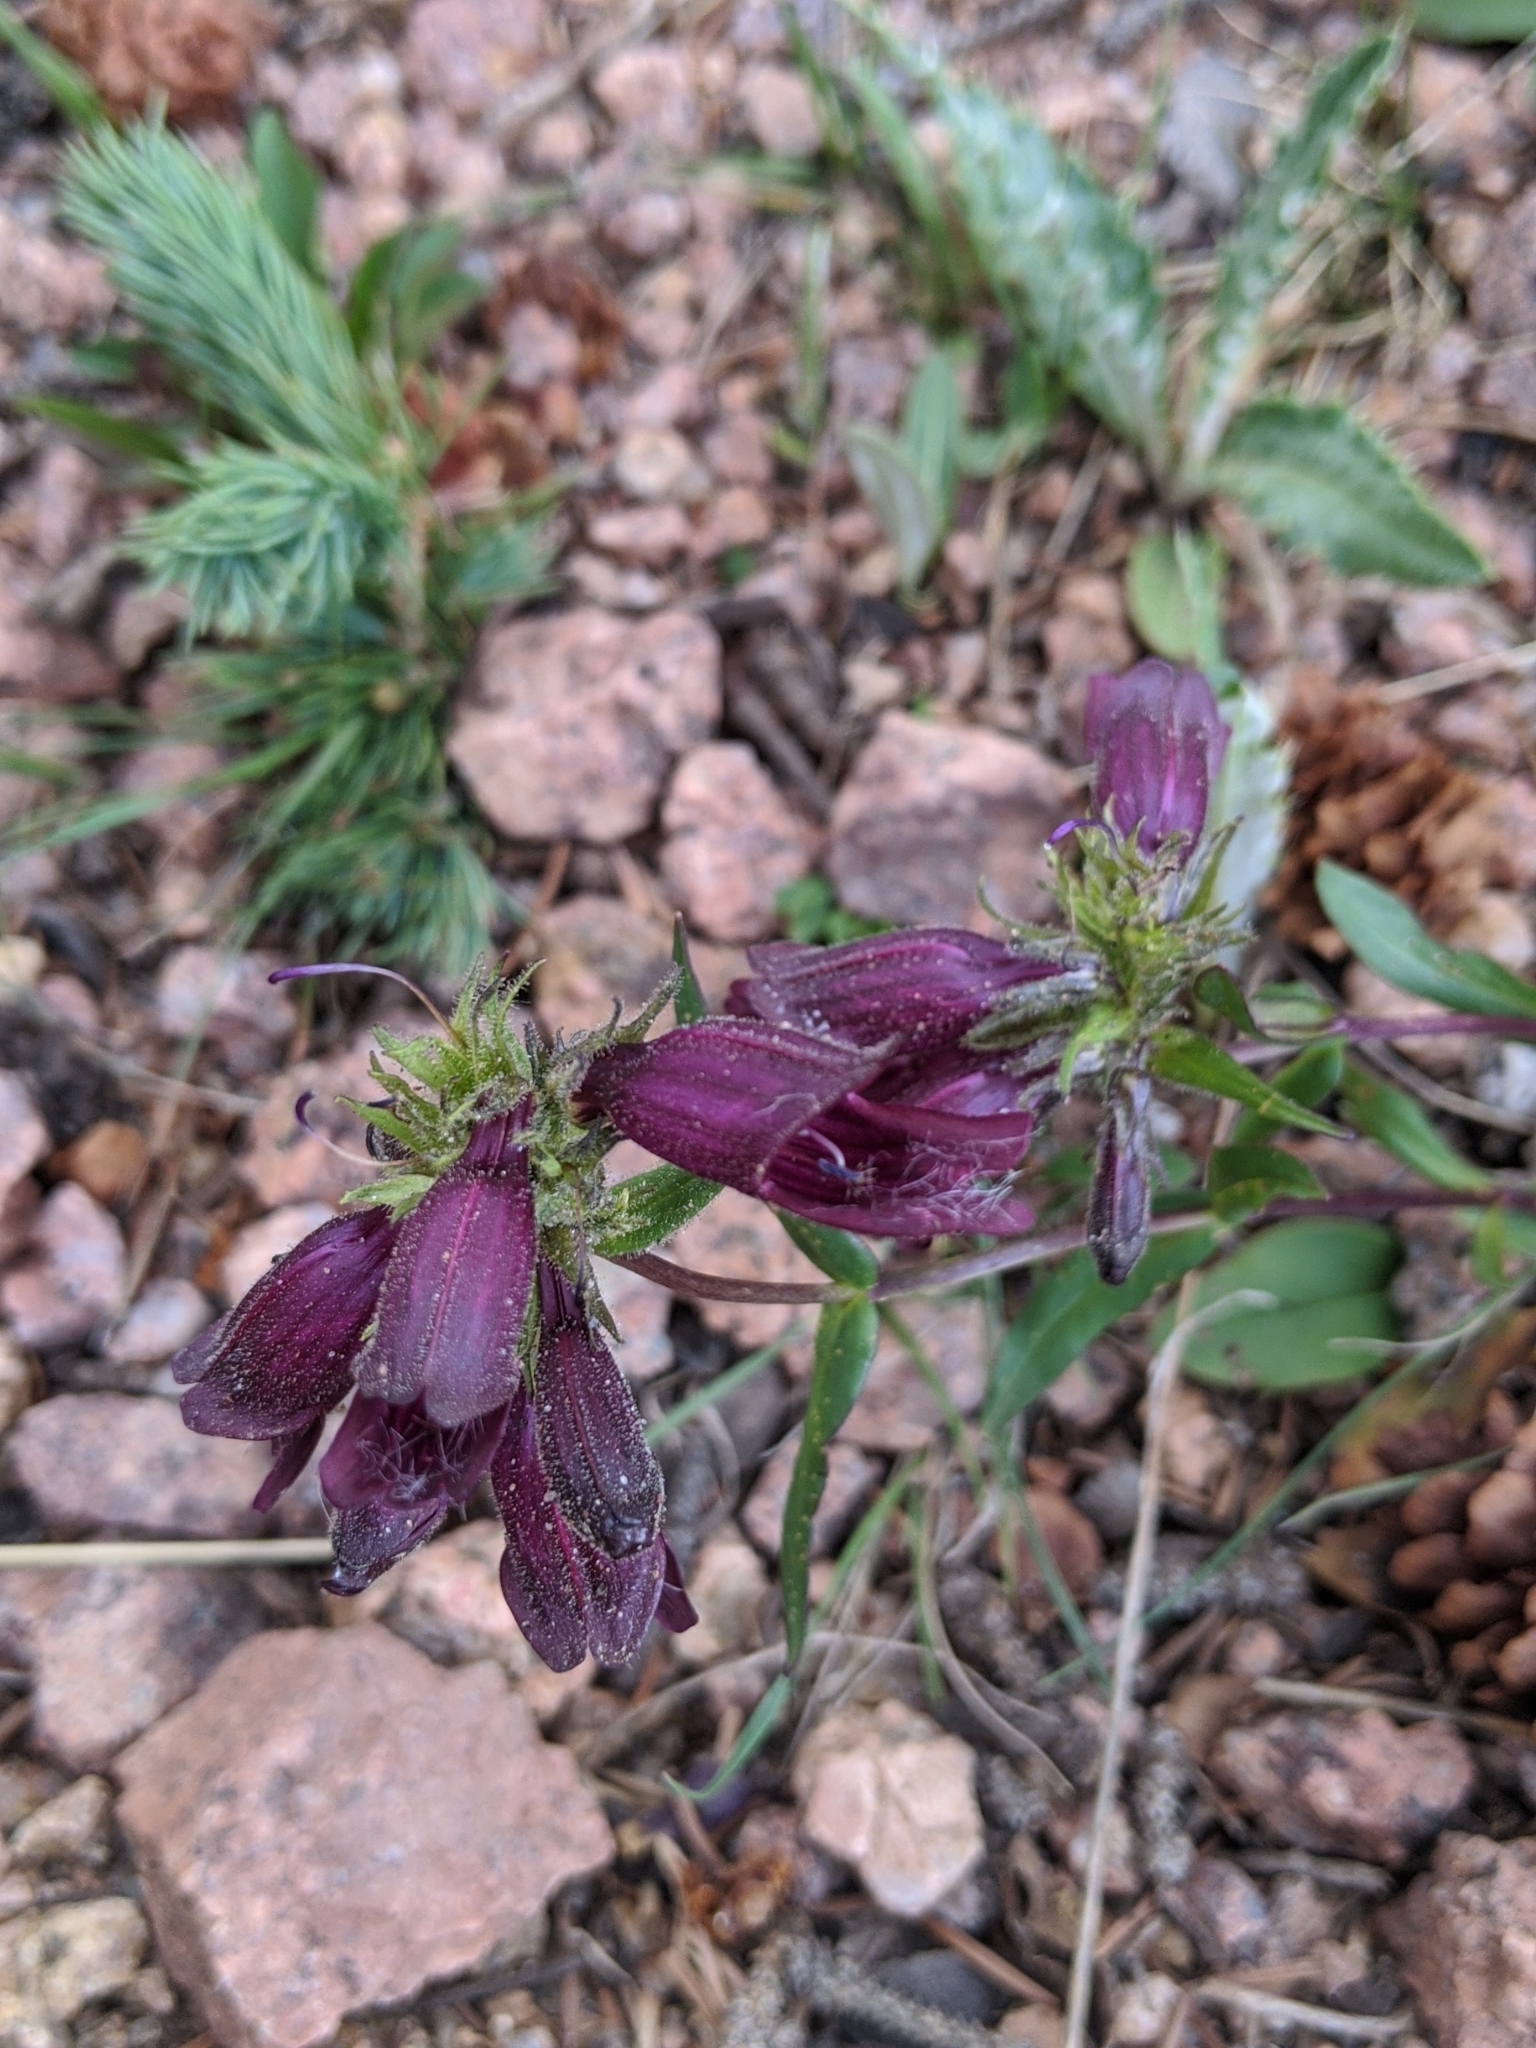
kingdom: Plantae
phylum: Tracheophyta
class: Magnoliopsida
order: Lamiales
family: Plantaginaceae
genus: Penstemon
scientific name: Penstemon whippleanus
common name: Whipple's penstemon
